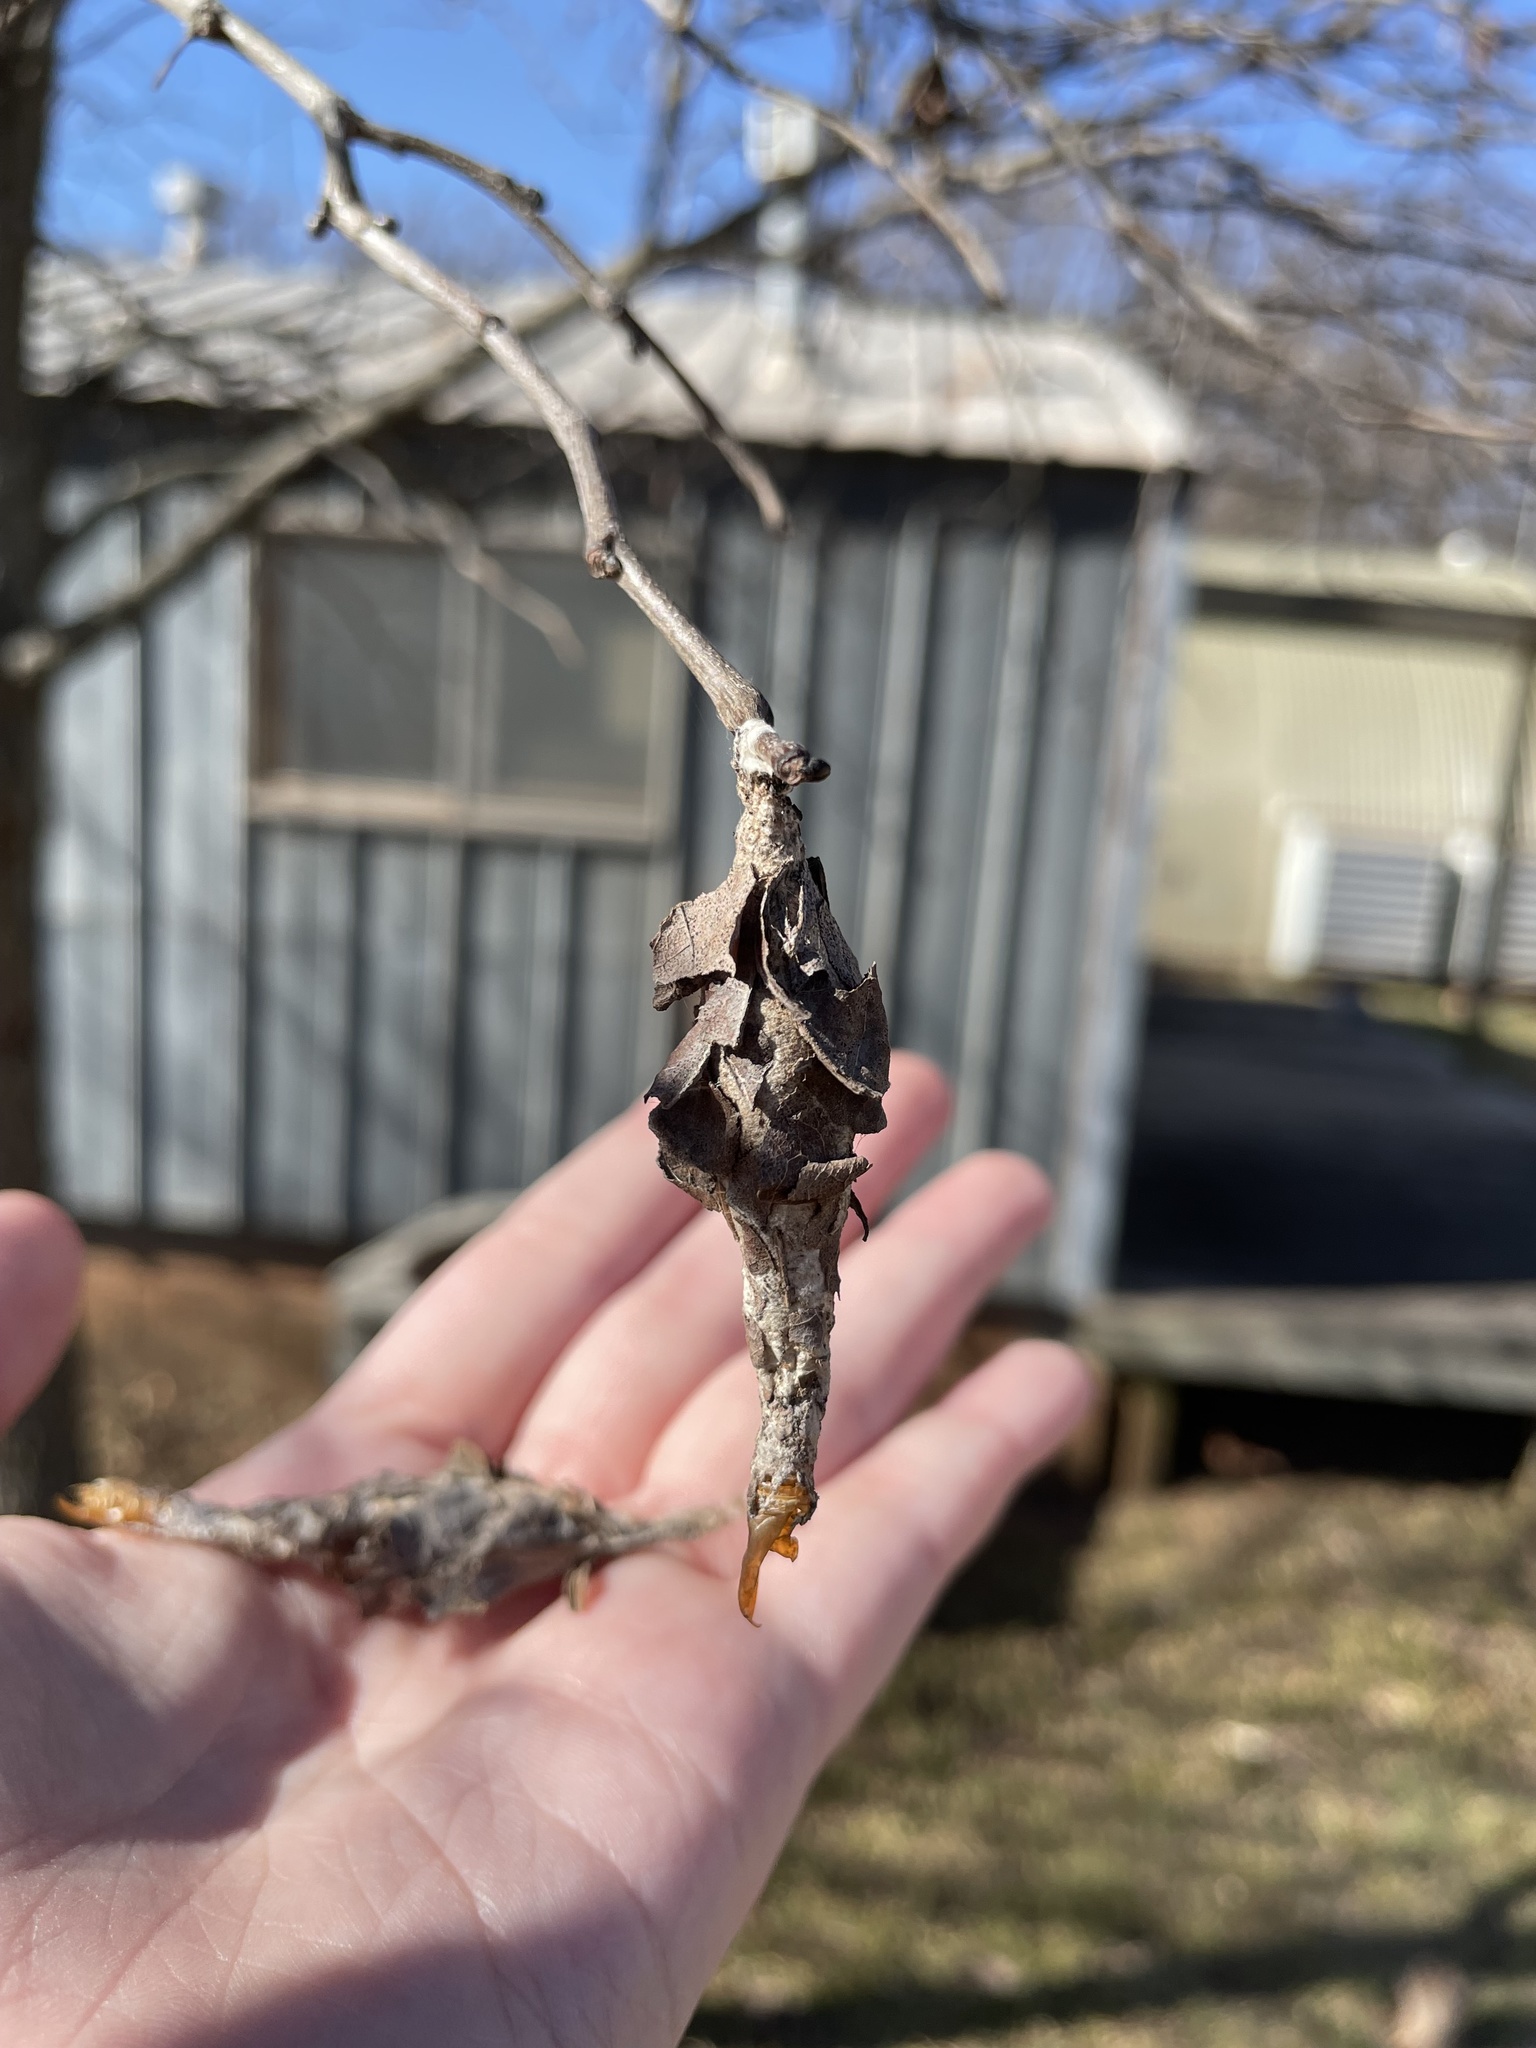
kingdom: Animalia
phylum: Arthropoda
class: Insecta
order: Lepidoptera
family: Psychidae
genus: Thyridopteryx
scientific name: Thyridopteryx ephemeraeformis
